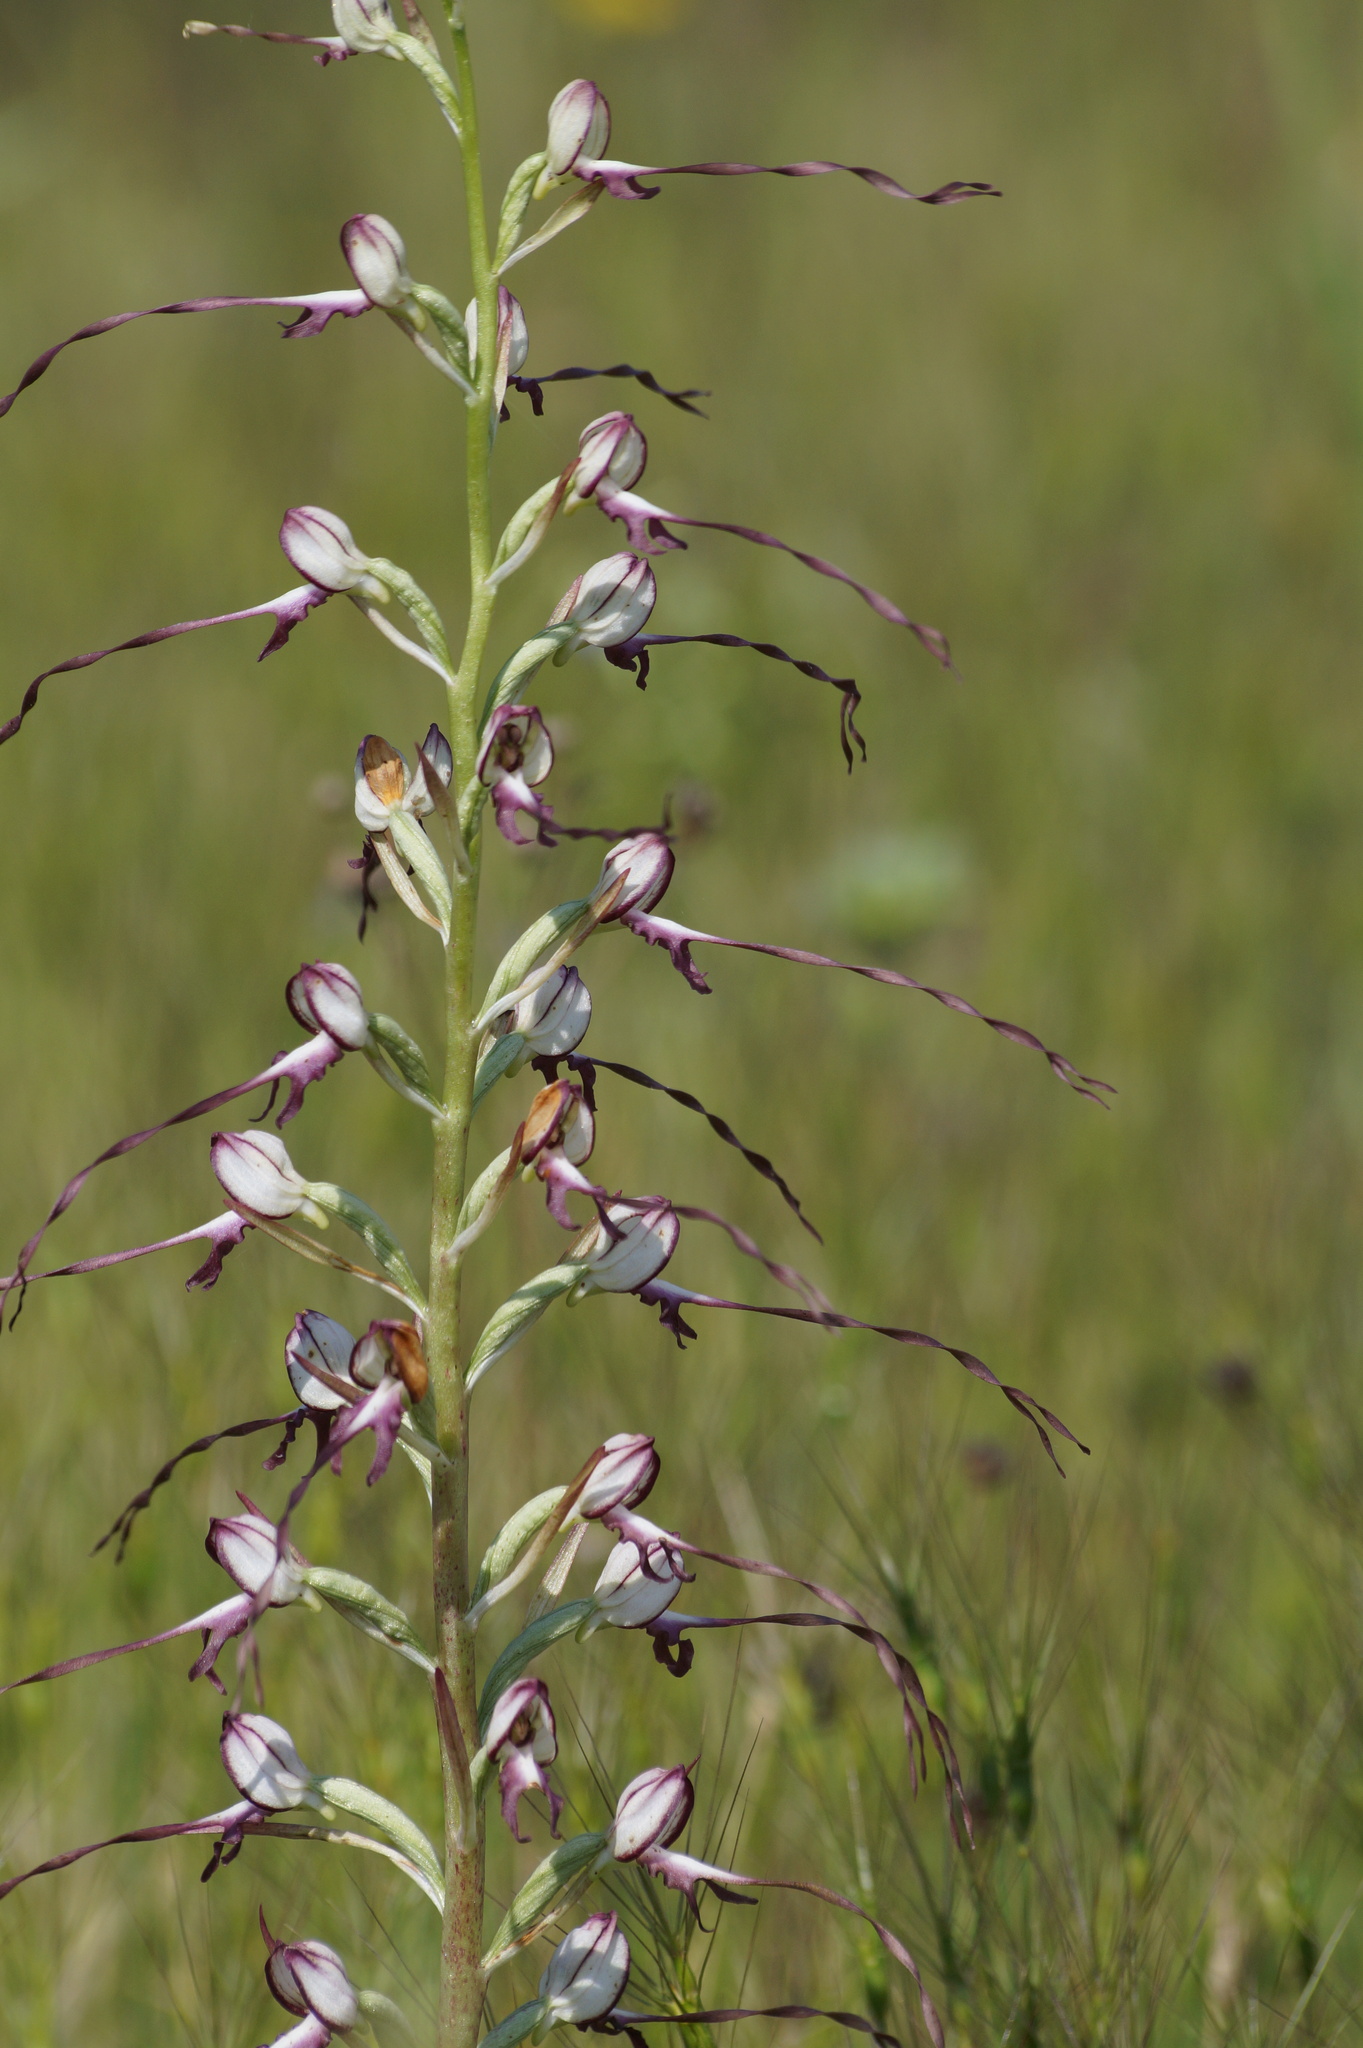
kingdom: Plantae
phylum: Tracheophyta
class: Liliopsida
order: Asparagales
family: Orchidaceae
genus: Himantoglossum
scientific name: Himantoglossum caprinum
